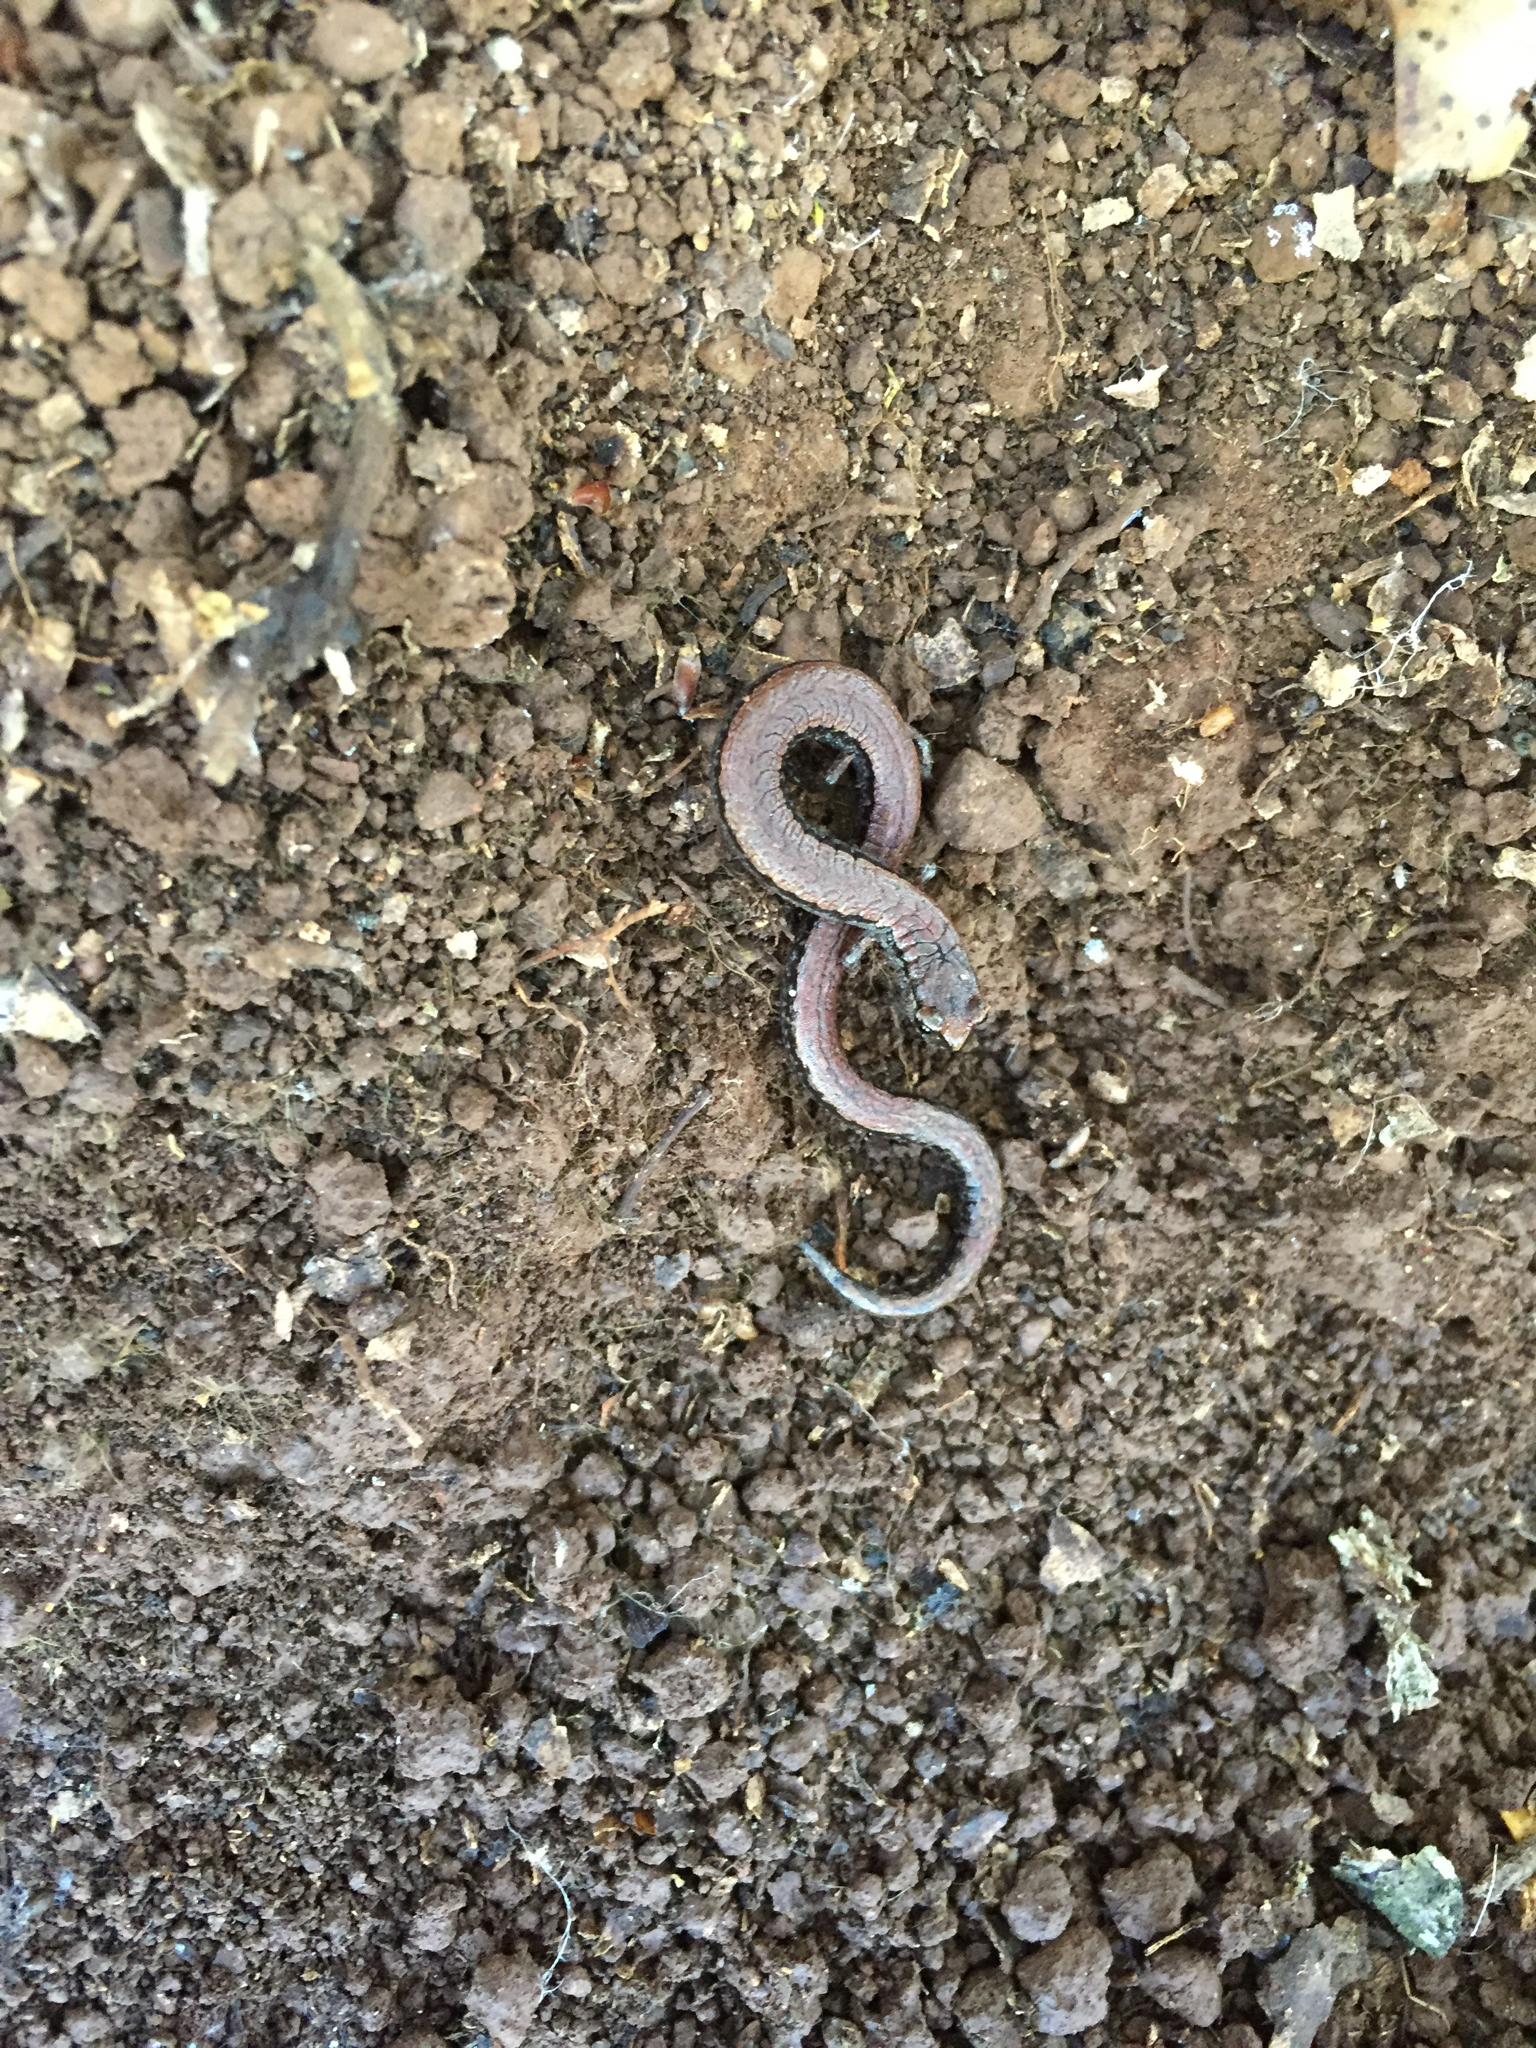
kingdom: Animalia
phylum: Chordata
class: Amphibia
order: Caudata
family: Plethodontidae
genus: Batrachoseps
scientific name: Batrachoseps attenuatus
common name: California slender salamander
